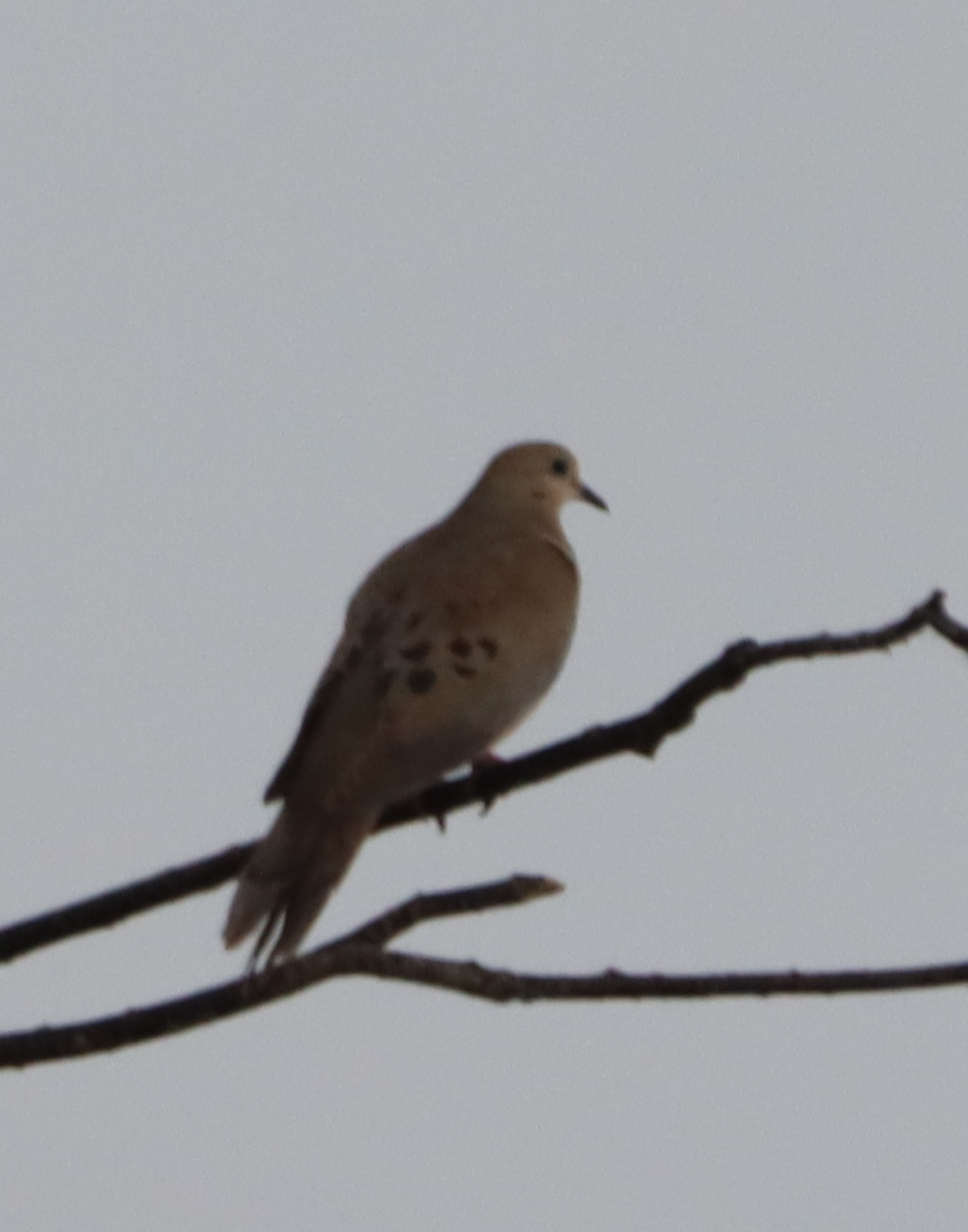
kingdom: Animalia
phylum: Chordata
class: Aves
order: Columbiformes
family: Columbidae
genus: Zenaida
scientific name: Zenaida macroura
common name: Mourning dove
